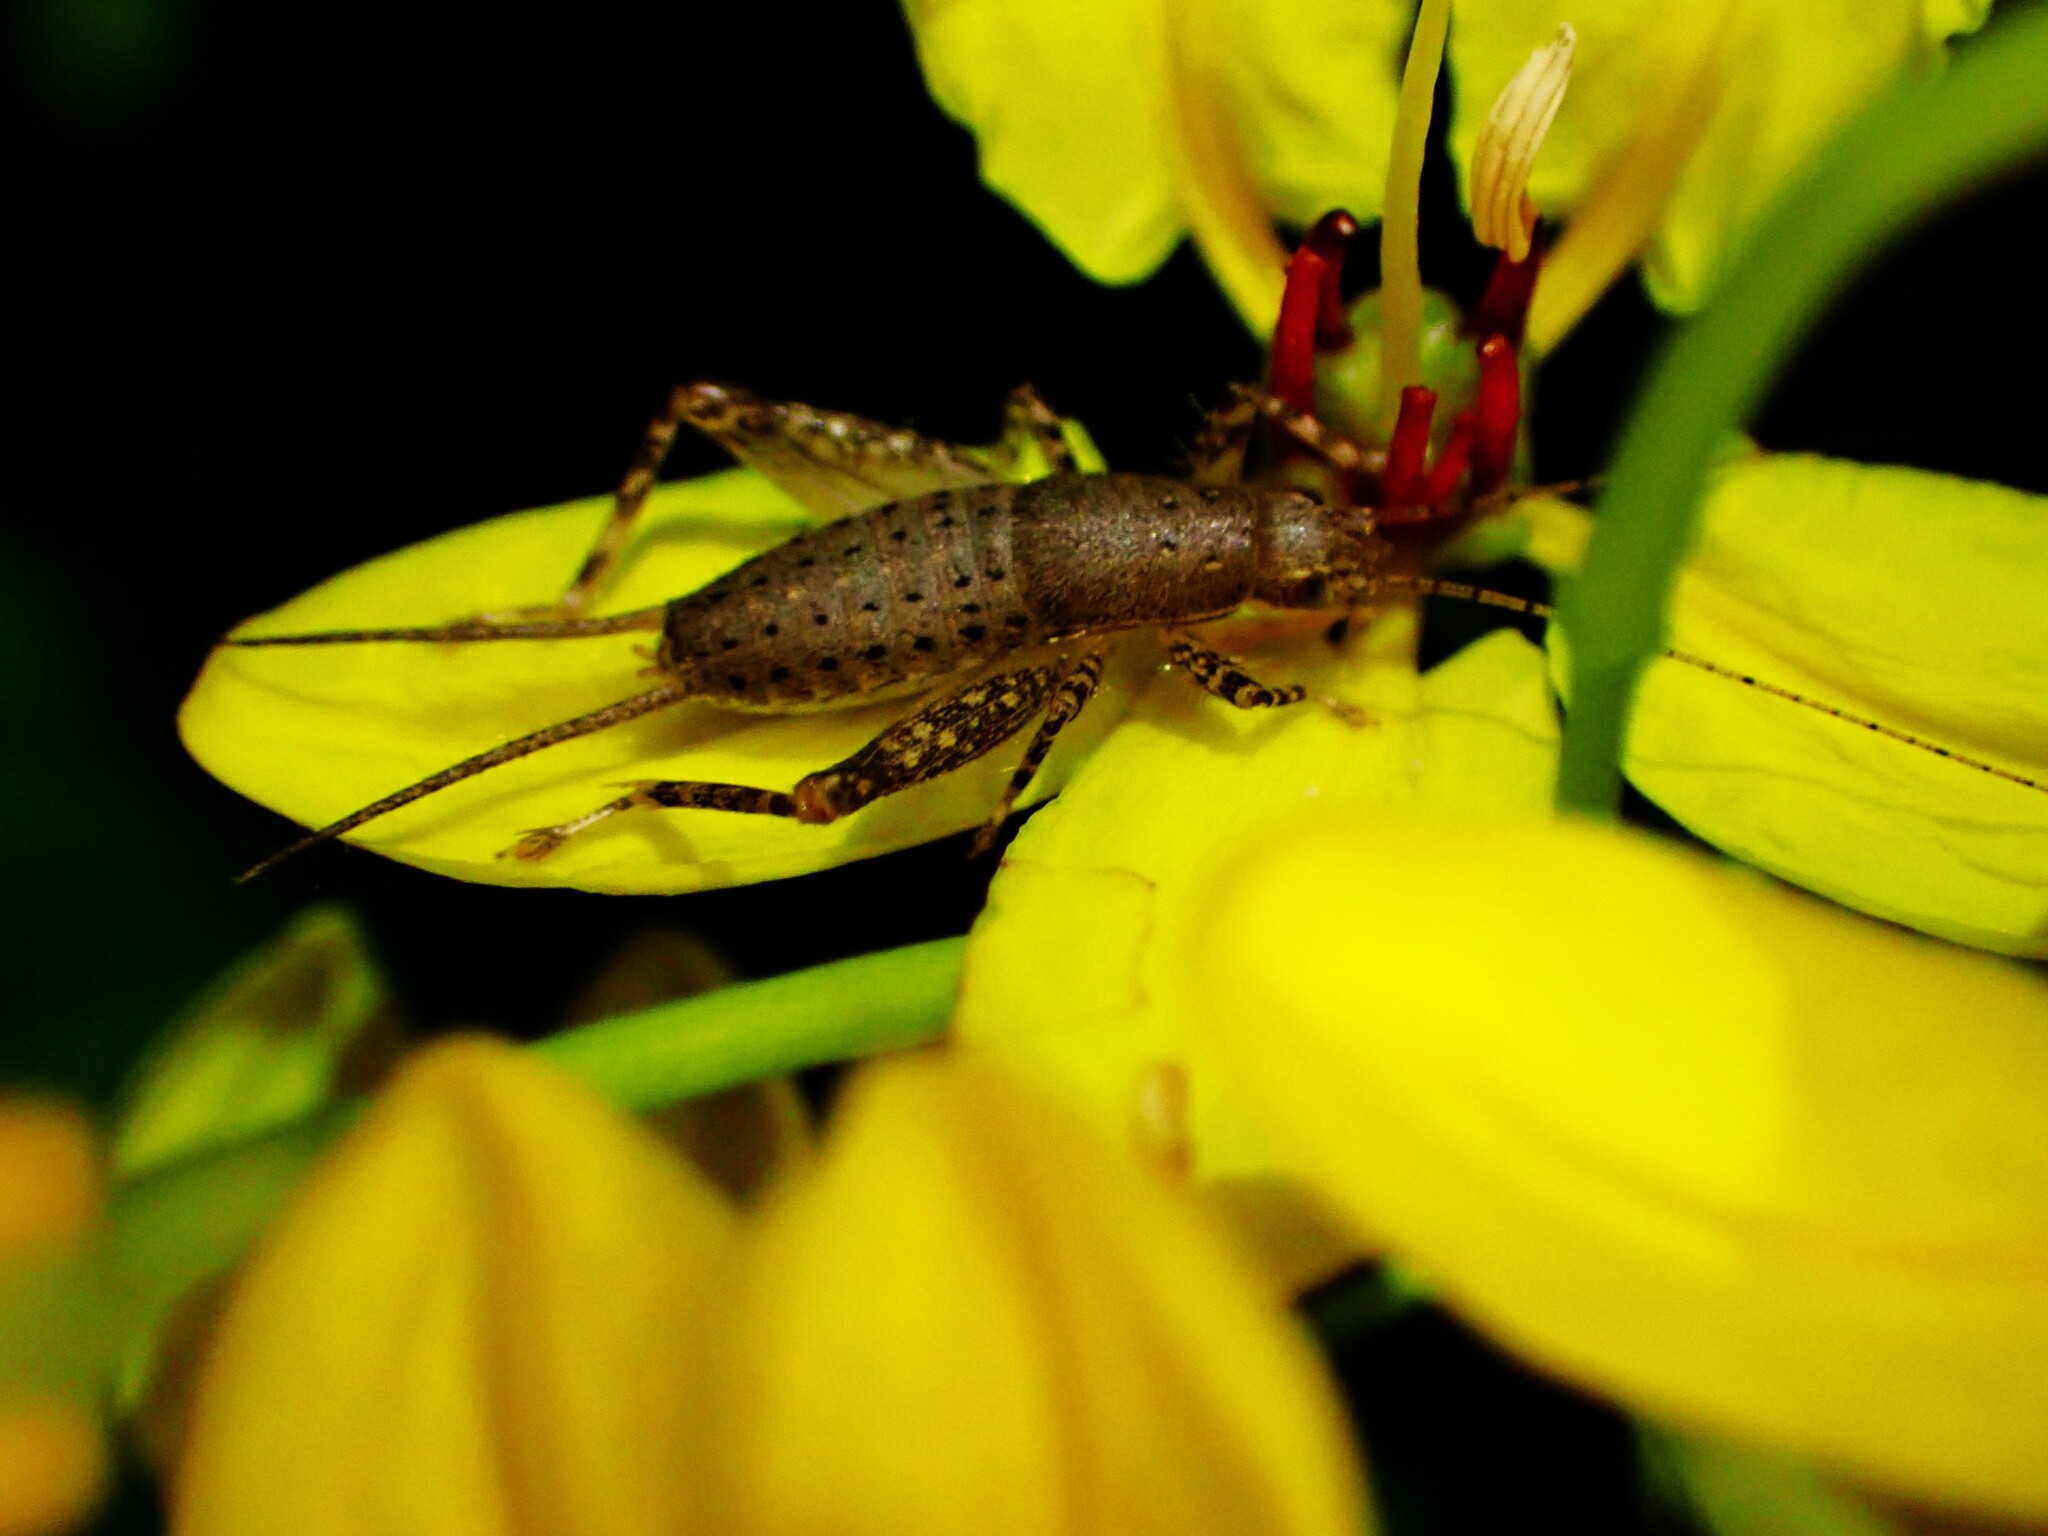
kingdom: Animalia
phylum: Arthropoda
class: Insecta
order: Orthoptera
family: Mogoplistidae
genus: Ornebius
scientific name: Ornebius novarae
